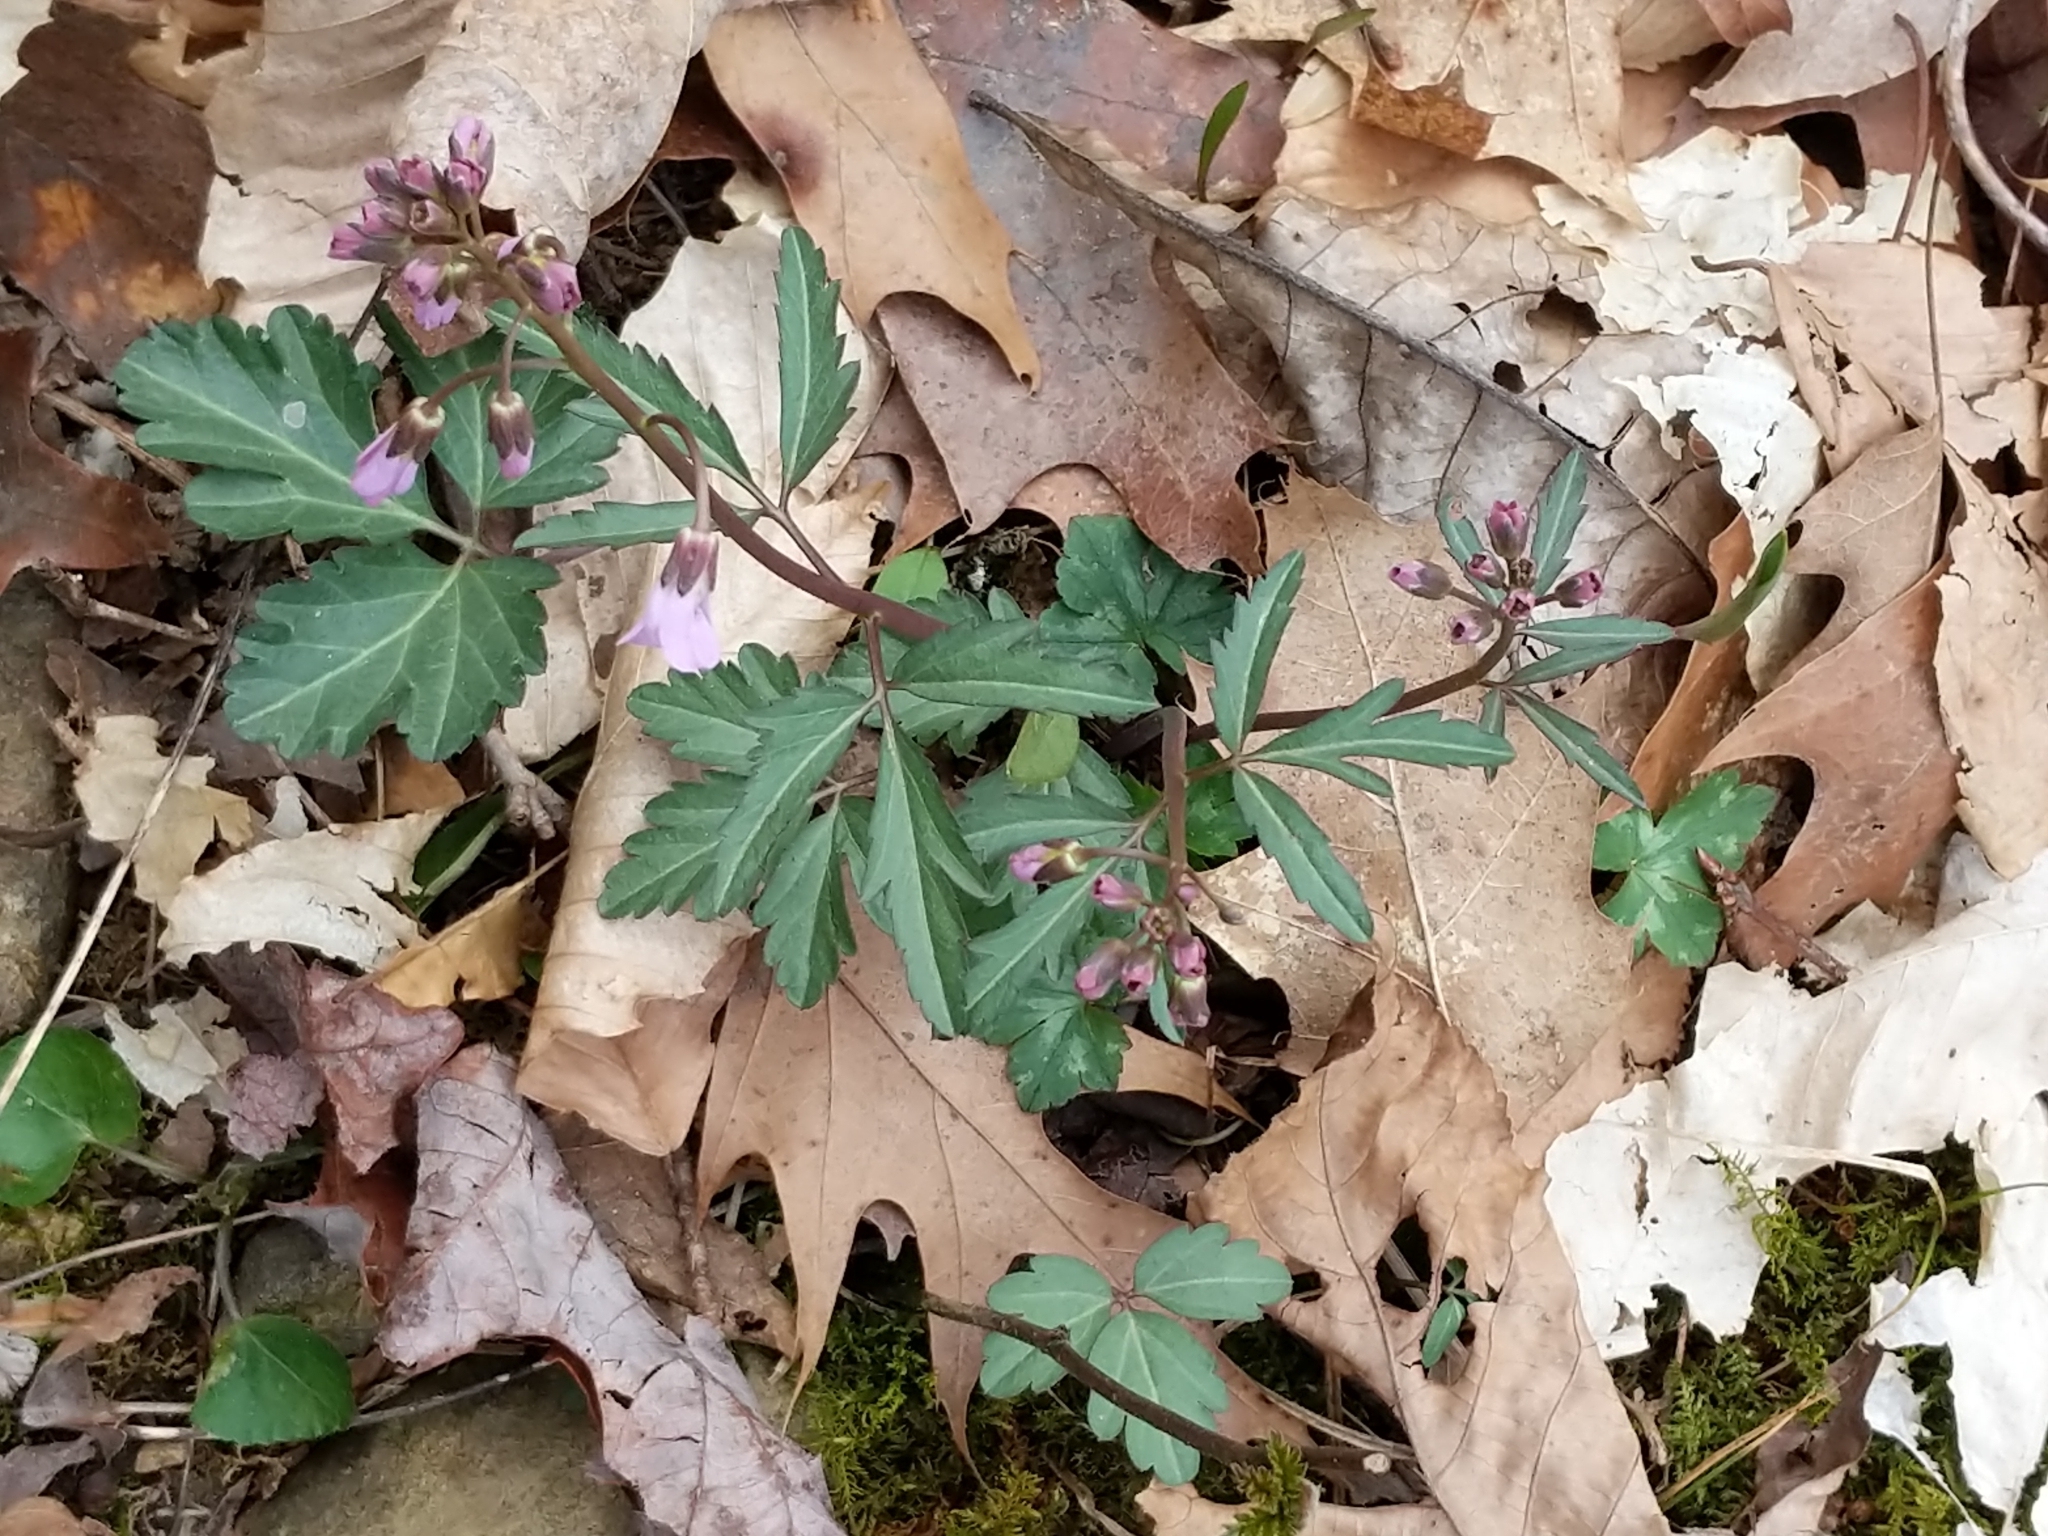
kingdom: Plantae
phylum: Tracheophyta
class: Magnoliopsida
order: Brassicales
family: Brassicaceae
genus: Cardamine
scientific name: Cardamine angustata
